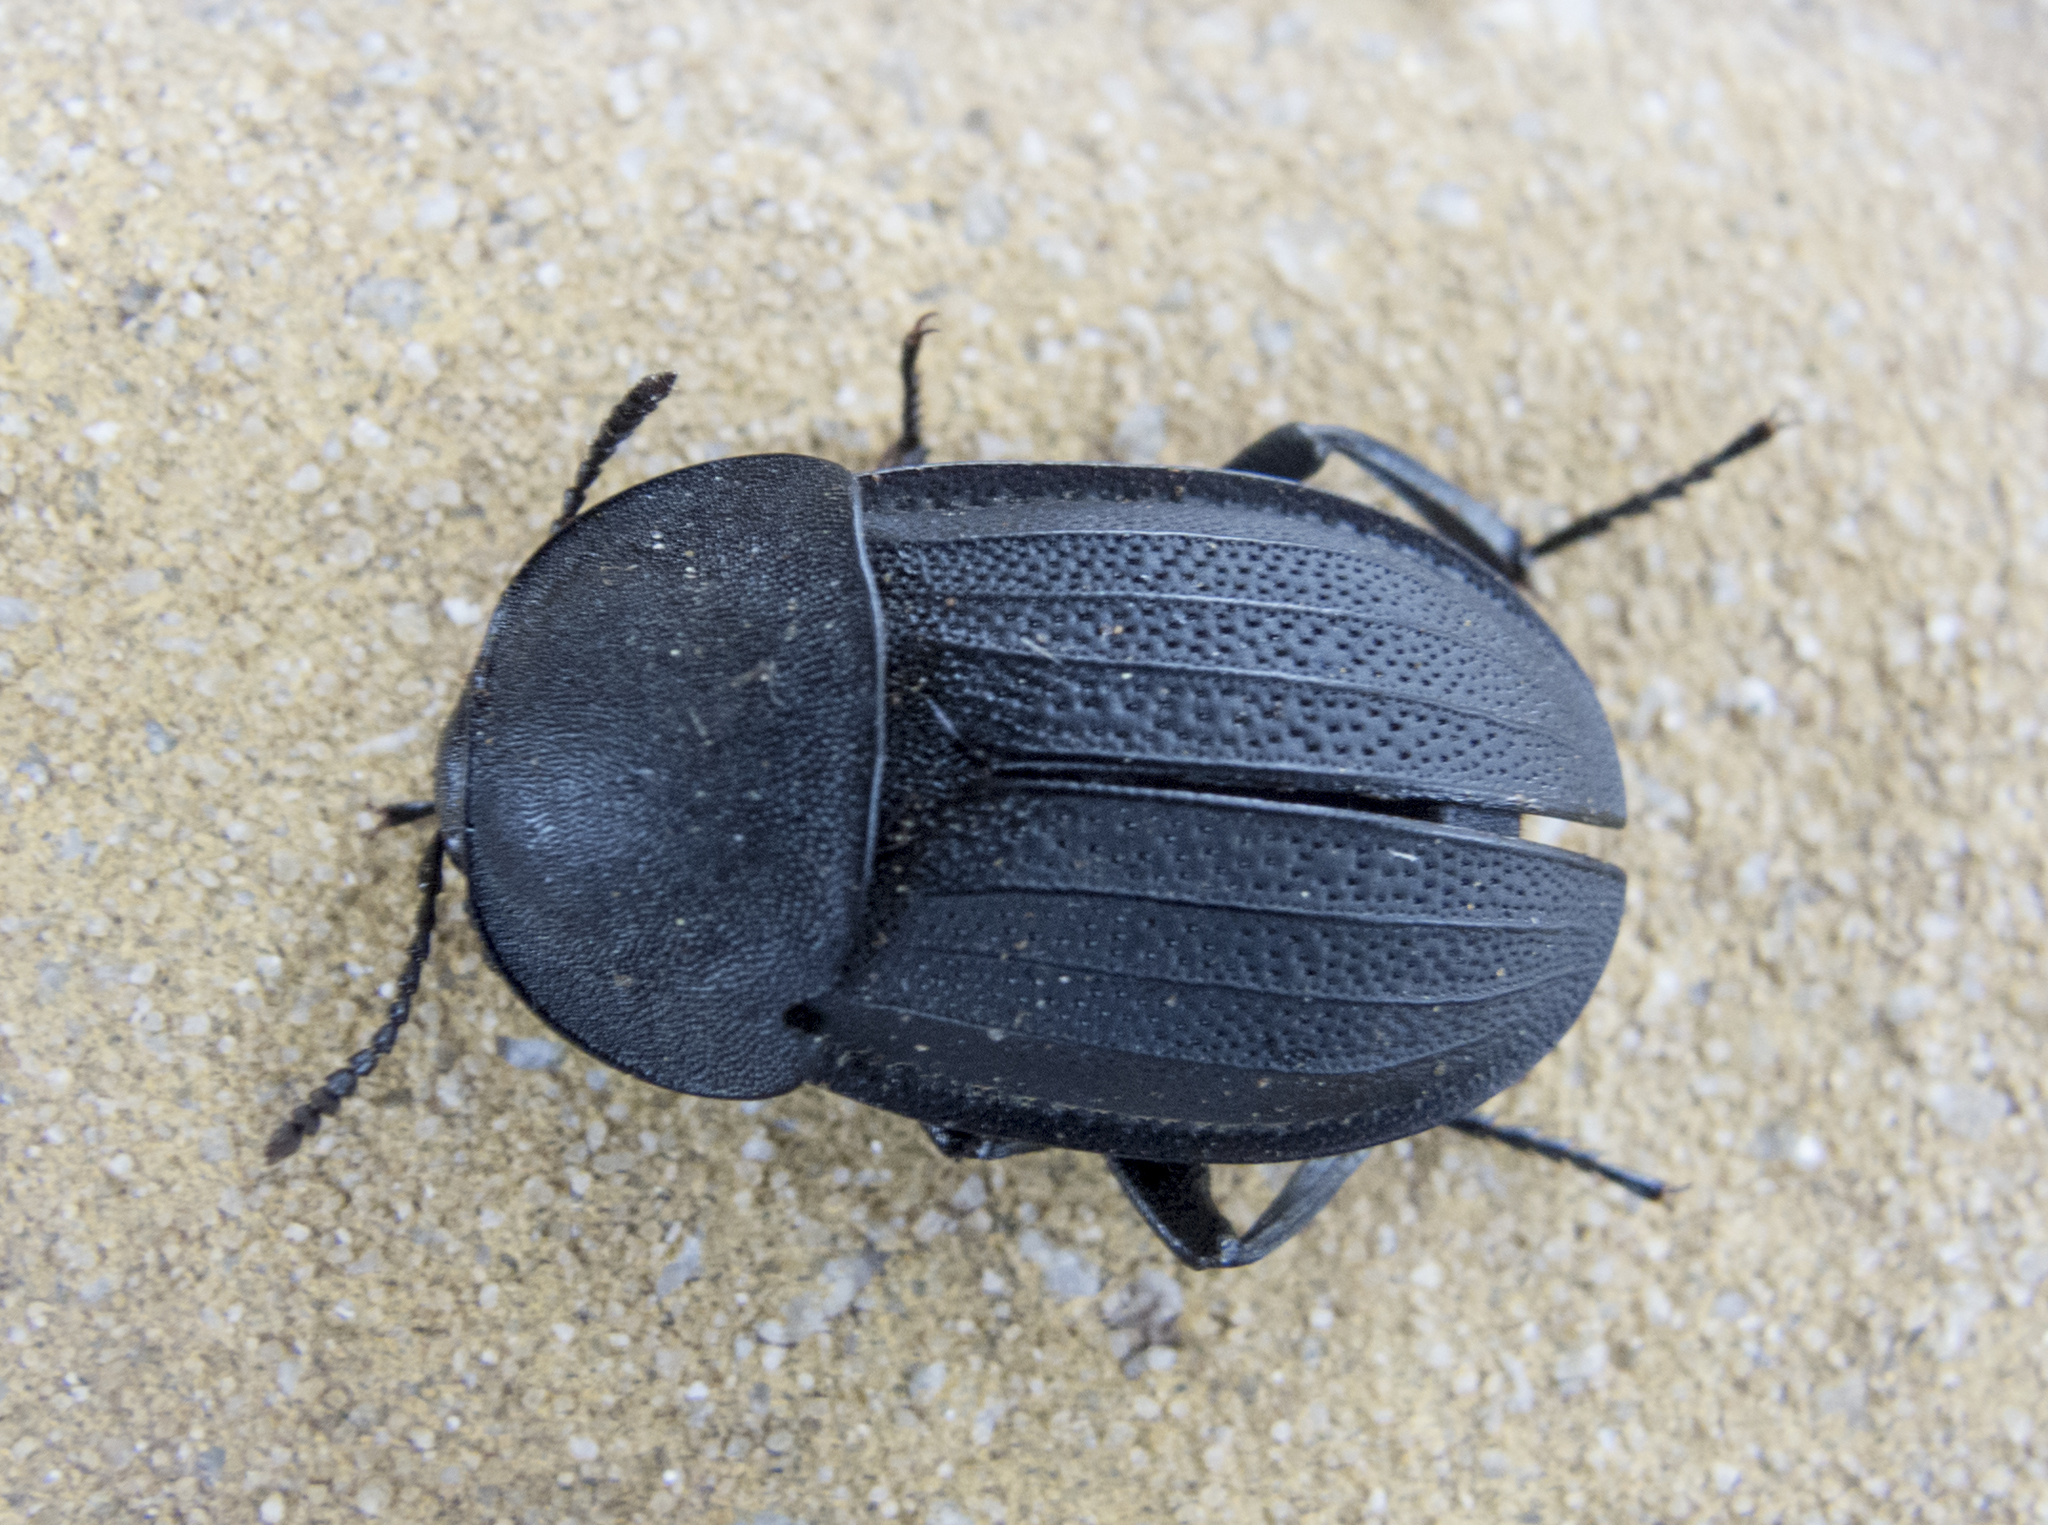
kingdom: Animalia
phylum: Arthropoda
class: Insecta
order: Coleoptera
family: Staphylinidae
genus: Silpha
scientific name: Silpha obscura
